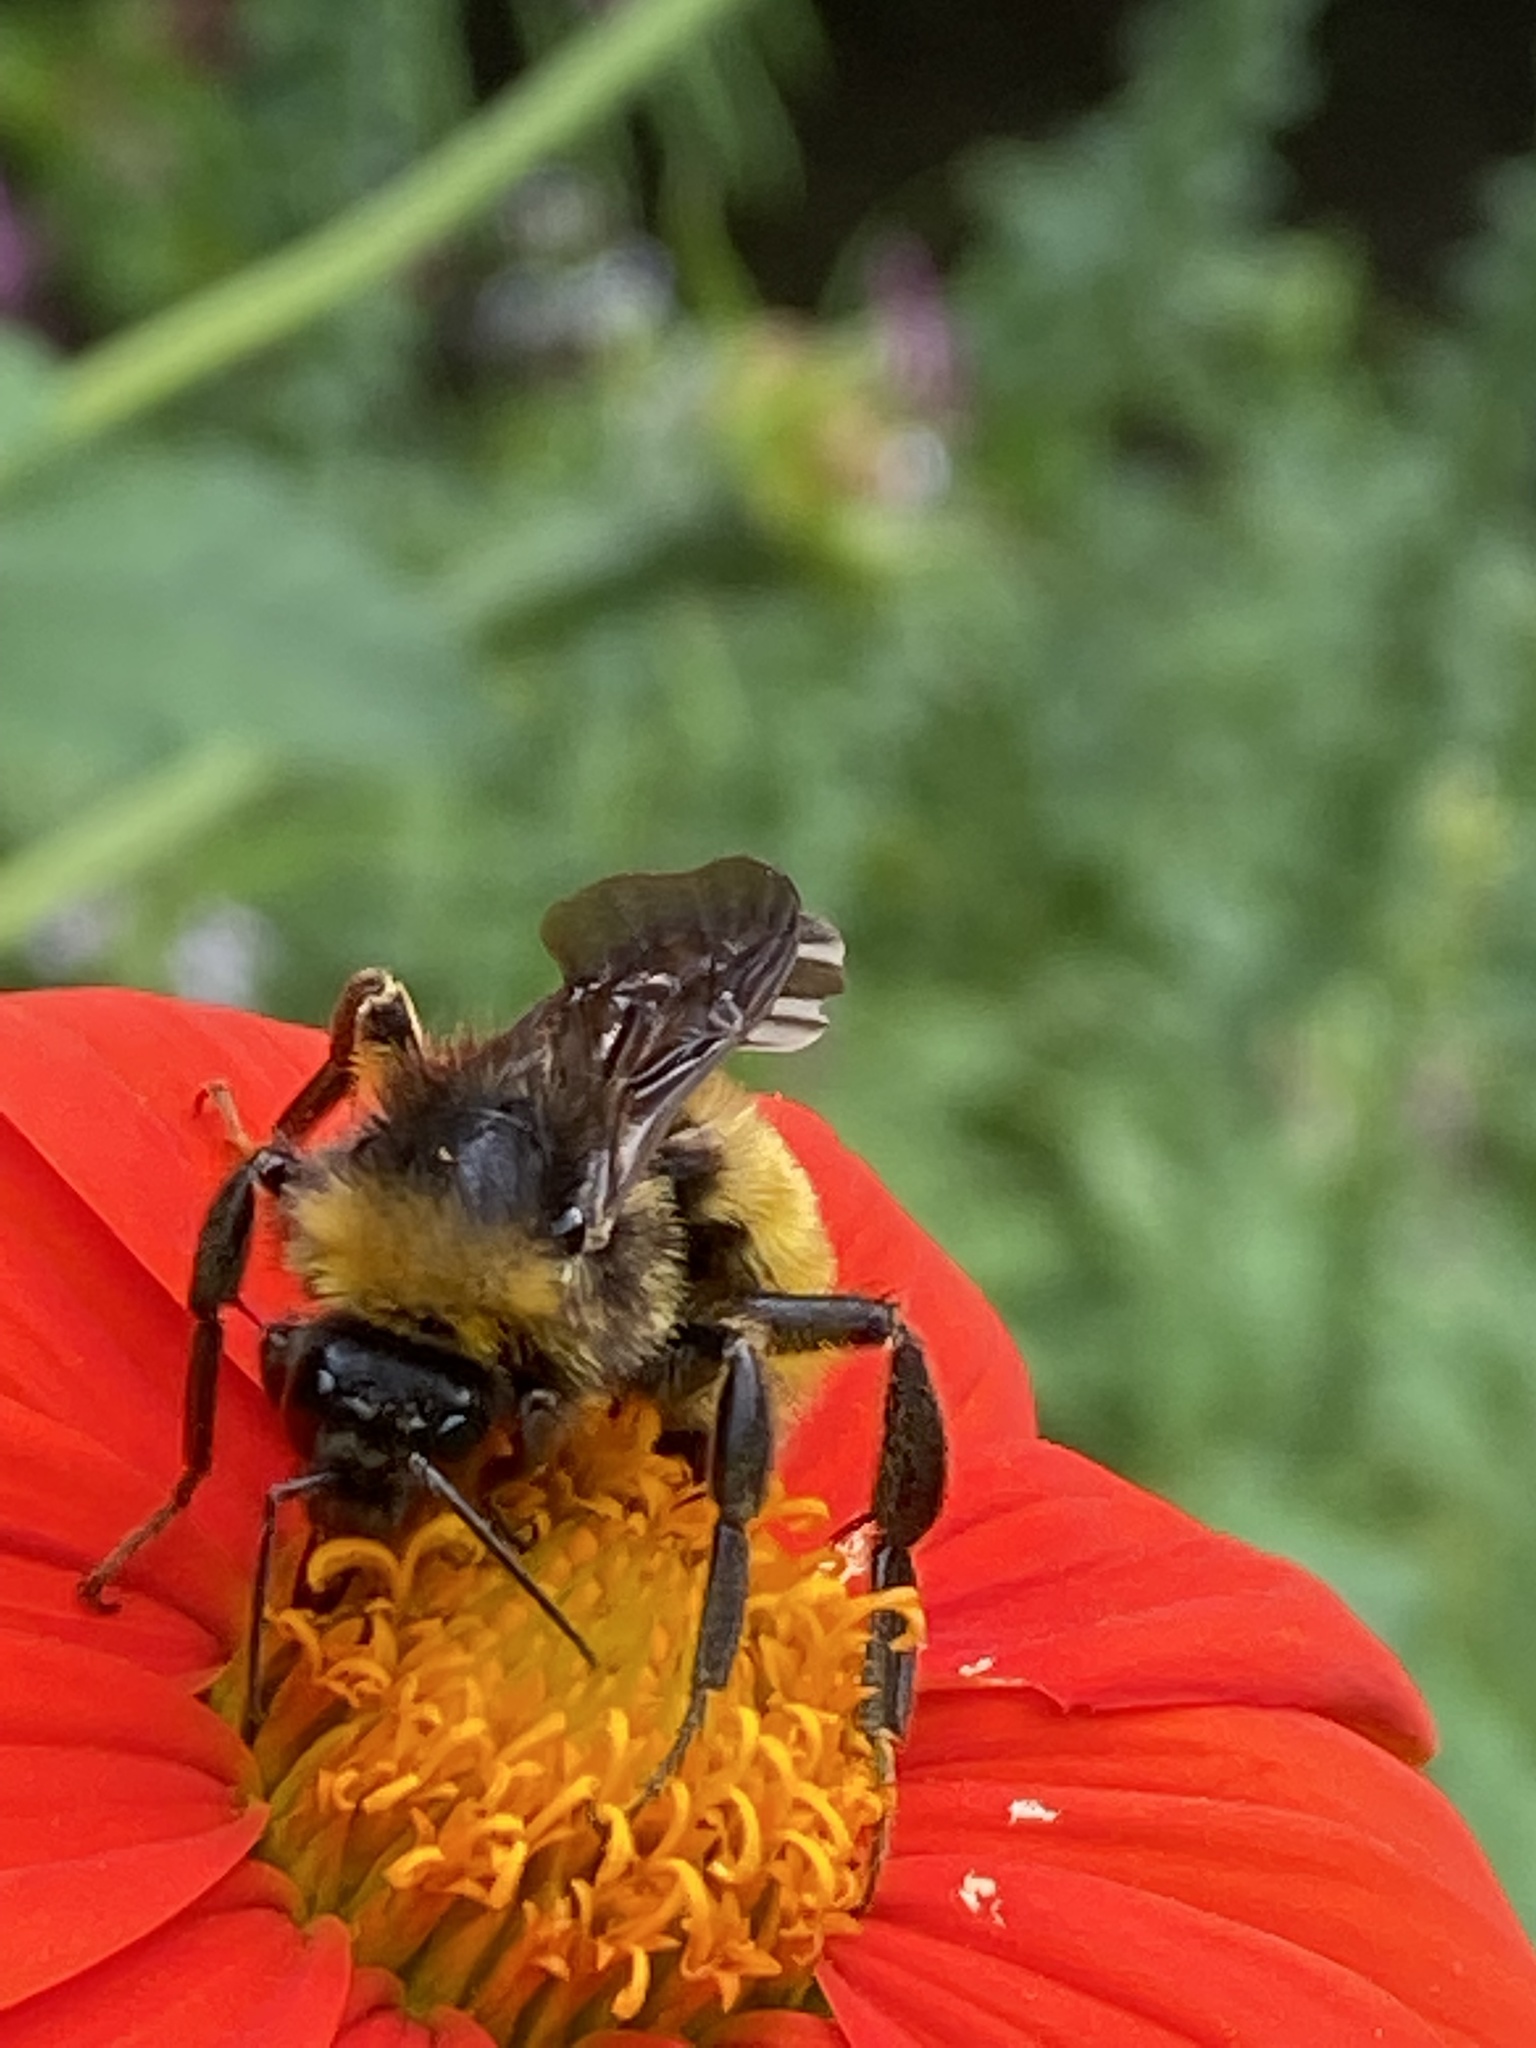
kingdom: Animalia
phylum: Arthropoda
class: Insecta
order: Hymenoptera
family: Apidae
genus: Bombus
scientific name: Bombus pensylvanicus
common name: Bumble bee
